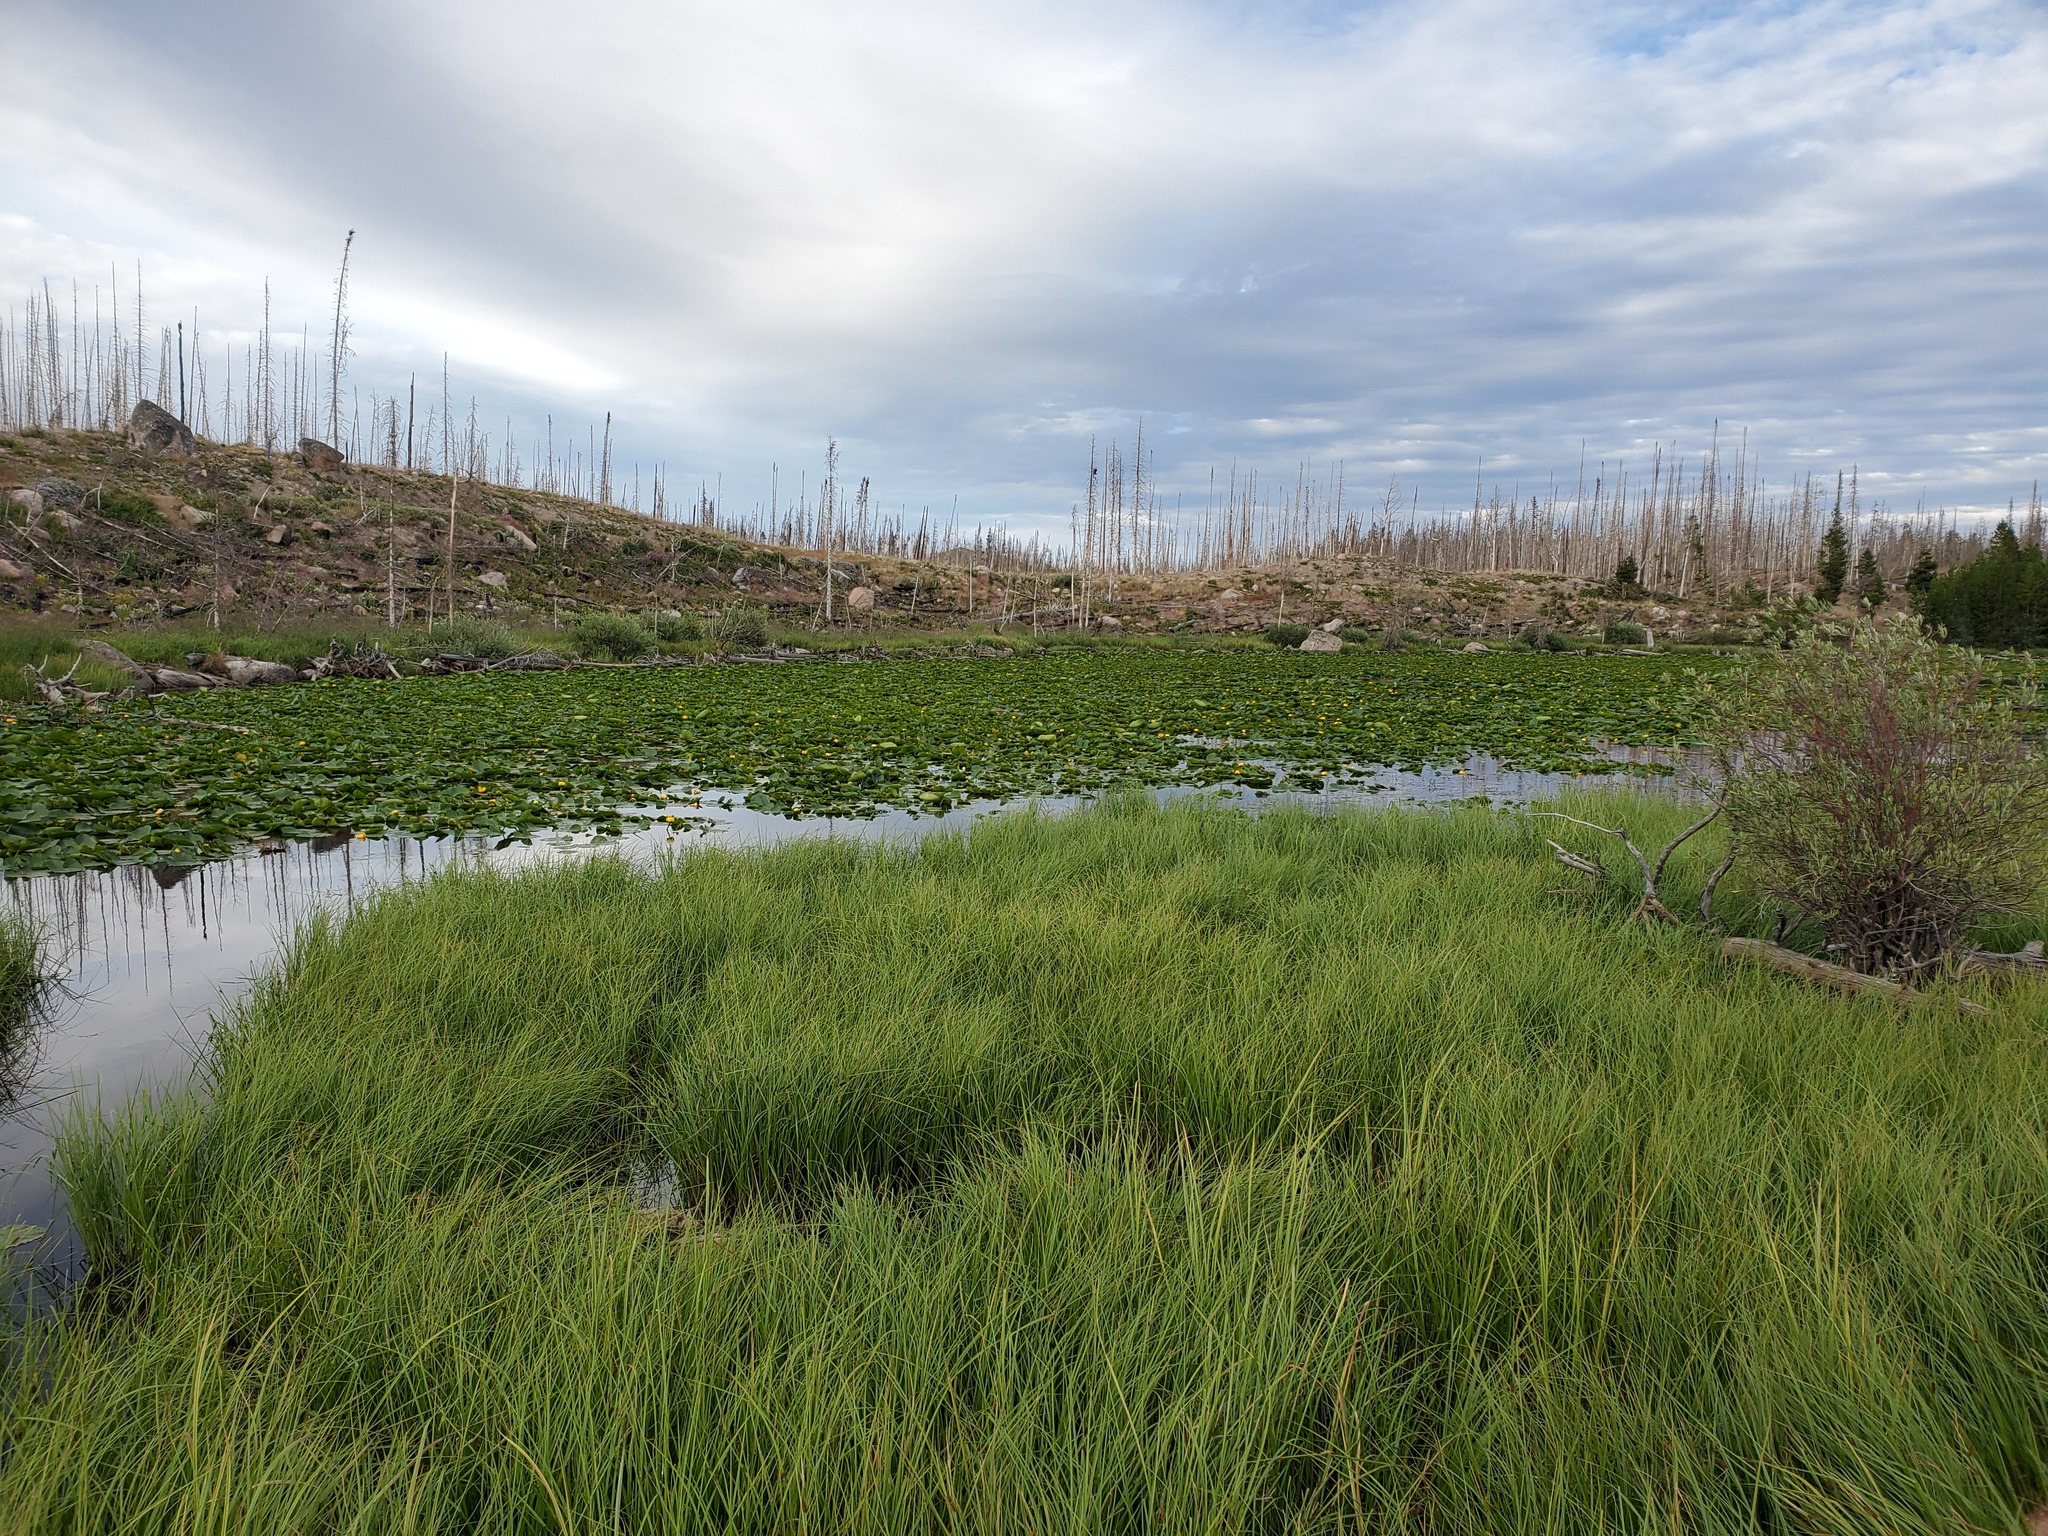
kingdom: Plantae
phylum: Tracheophyta
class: Magnoliopsida
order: Nymphaeales
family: Nymphaeaceae
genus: Nuphar
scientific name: Nuphar polysepala
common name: Rocky mountain cow-lily
